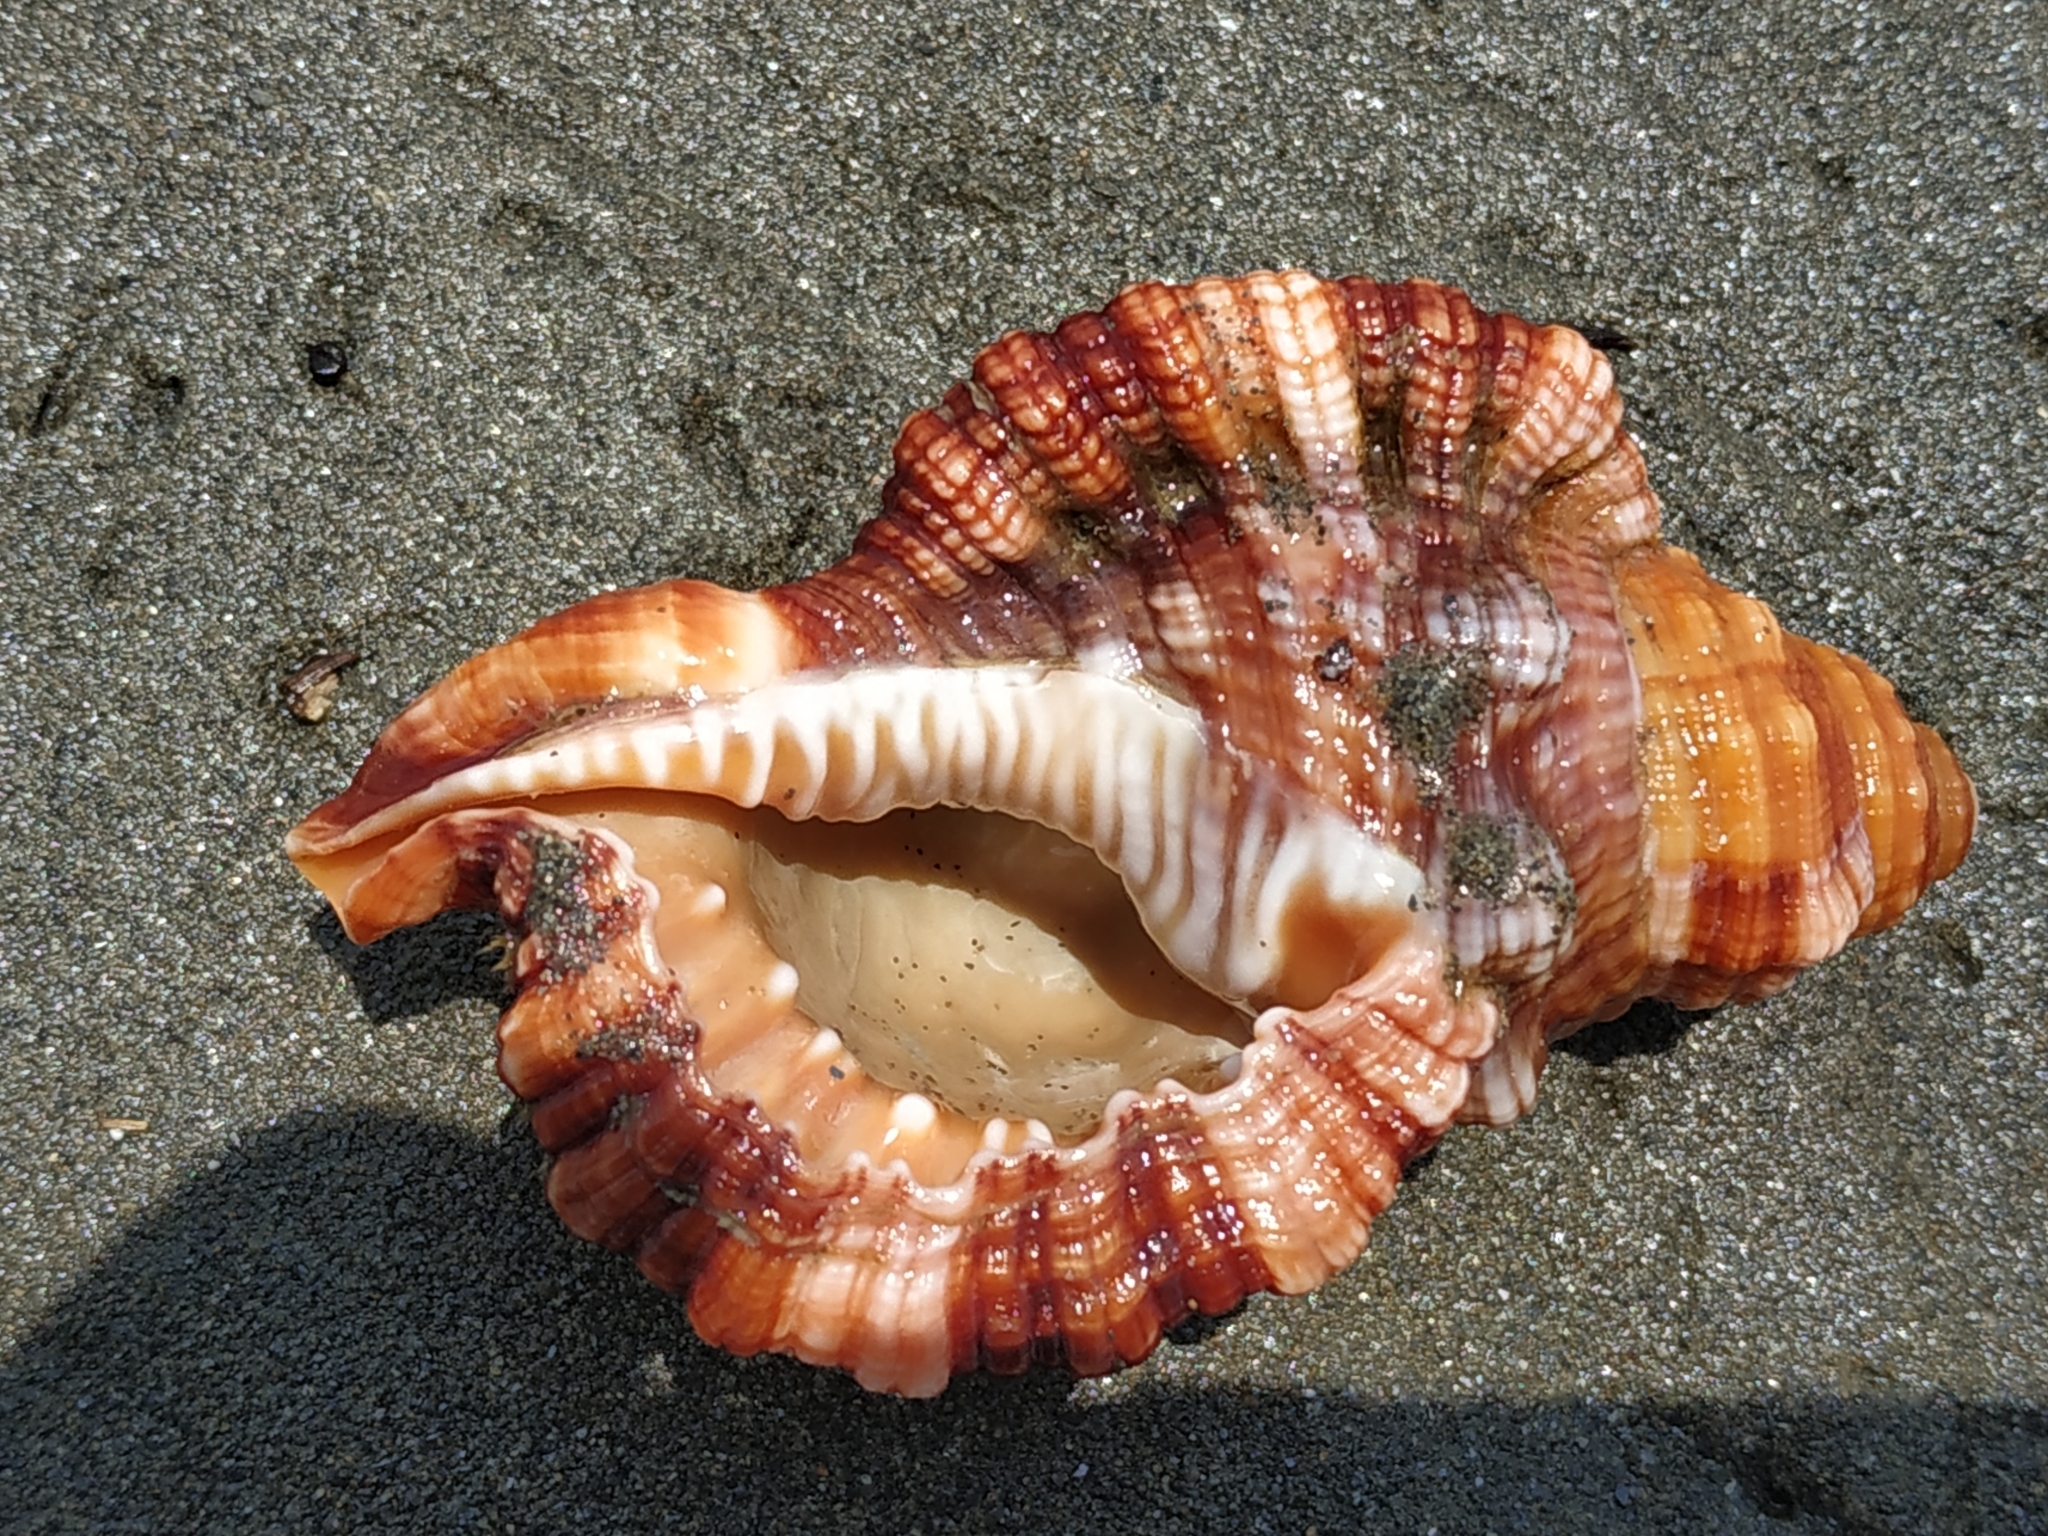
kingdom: Animalia
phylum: Mollusca
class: Gastropoda
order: Littorinimorpha
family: Cymatiidae
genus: Monoplex
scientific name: Monoplex aquatilis
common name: Aquatile hairy triton
